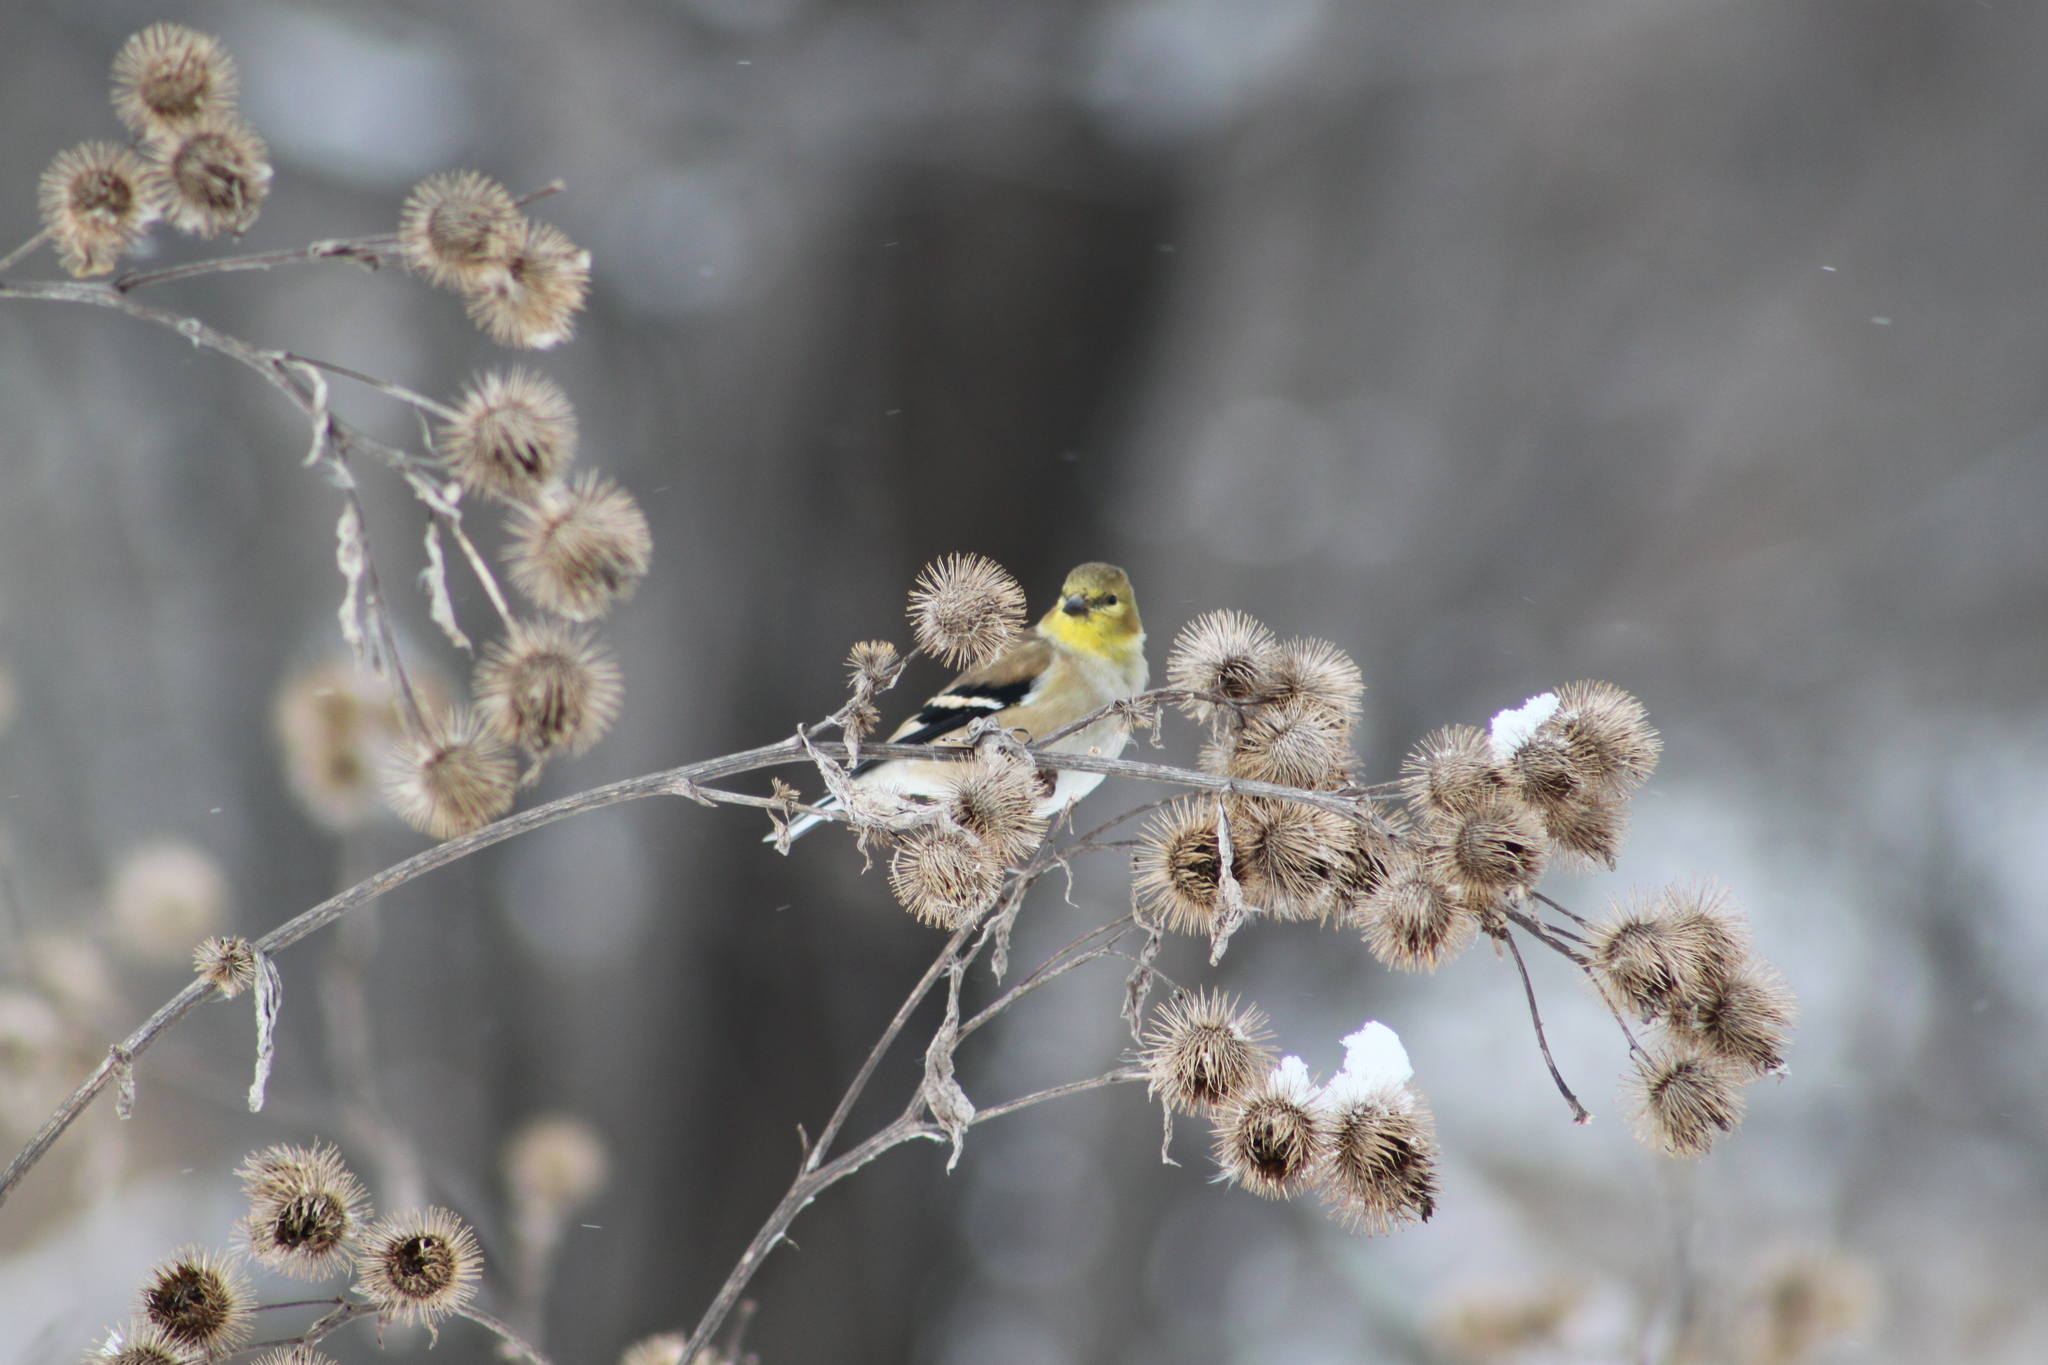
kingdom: Animalia
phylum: Chordata
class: Aves
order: Passeriformes
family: Fringillidae
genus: Spinus
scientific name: Spinus tristis
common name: American goldfinch
